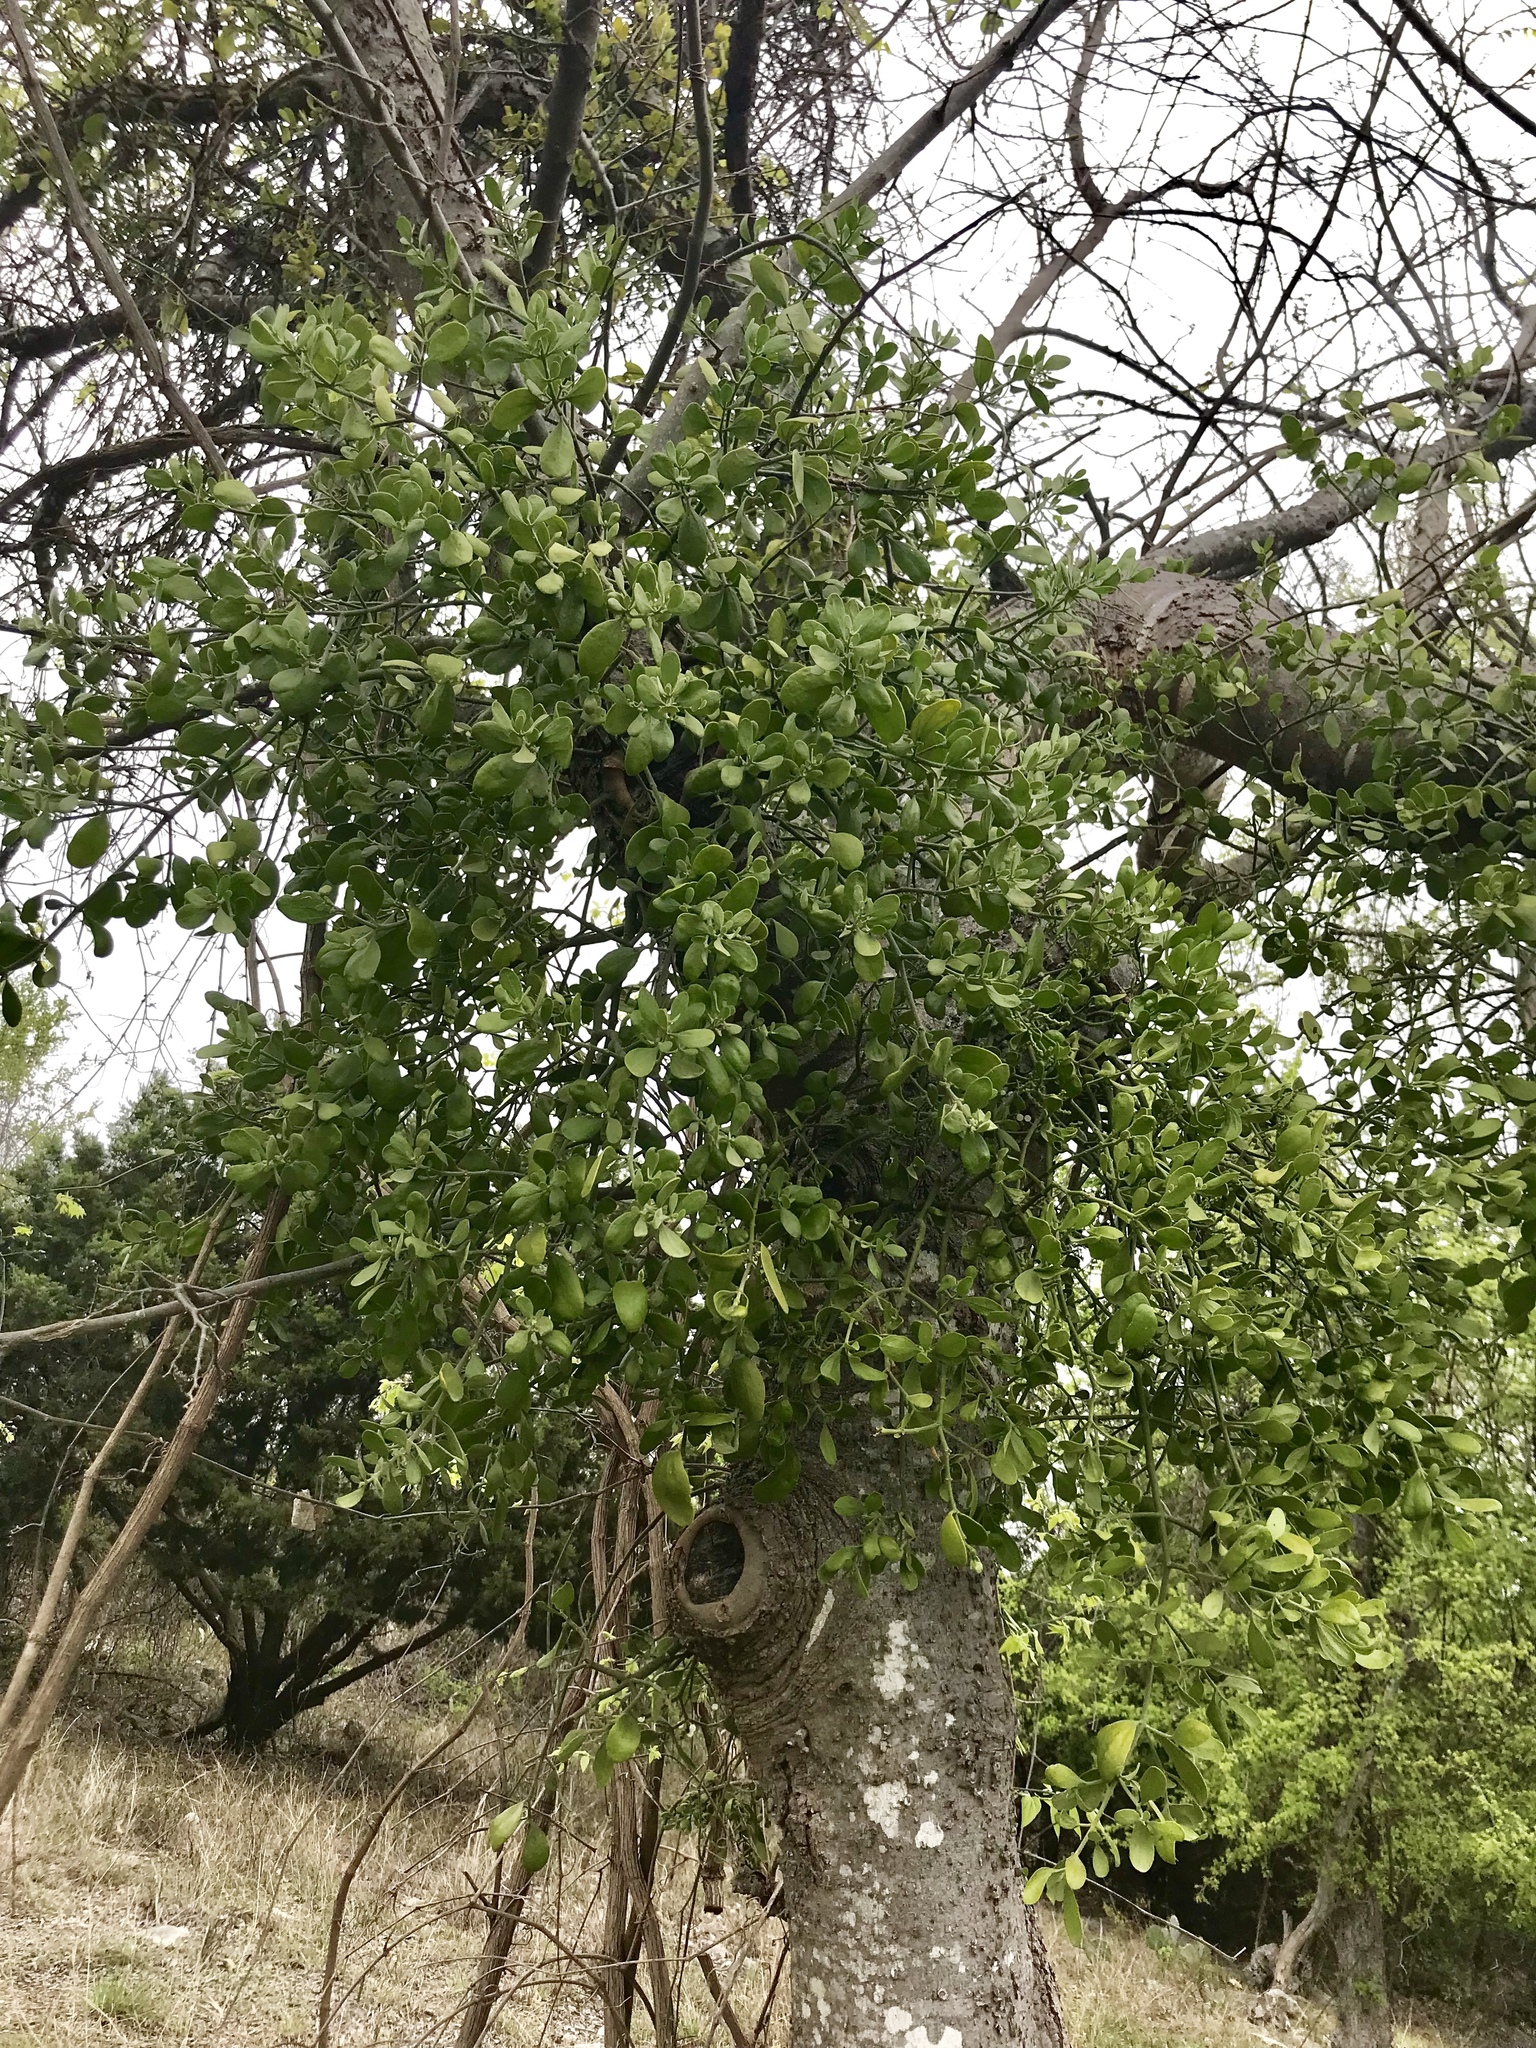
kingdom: Plantae
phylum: Tracheophyta
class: Magnoliopsida
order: Santalales
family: Viscaceae
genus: Phoradendron
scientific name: Phoradendron leucarpum
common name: Pacific mistletoe
